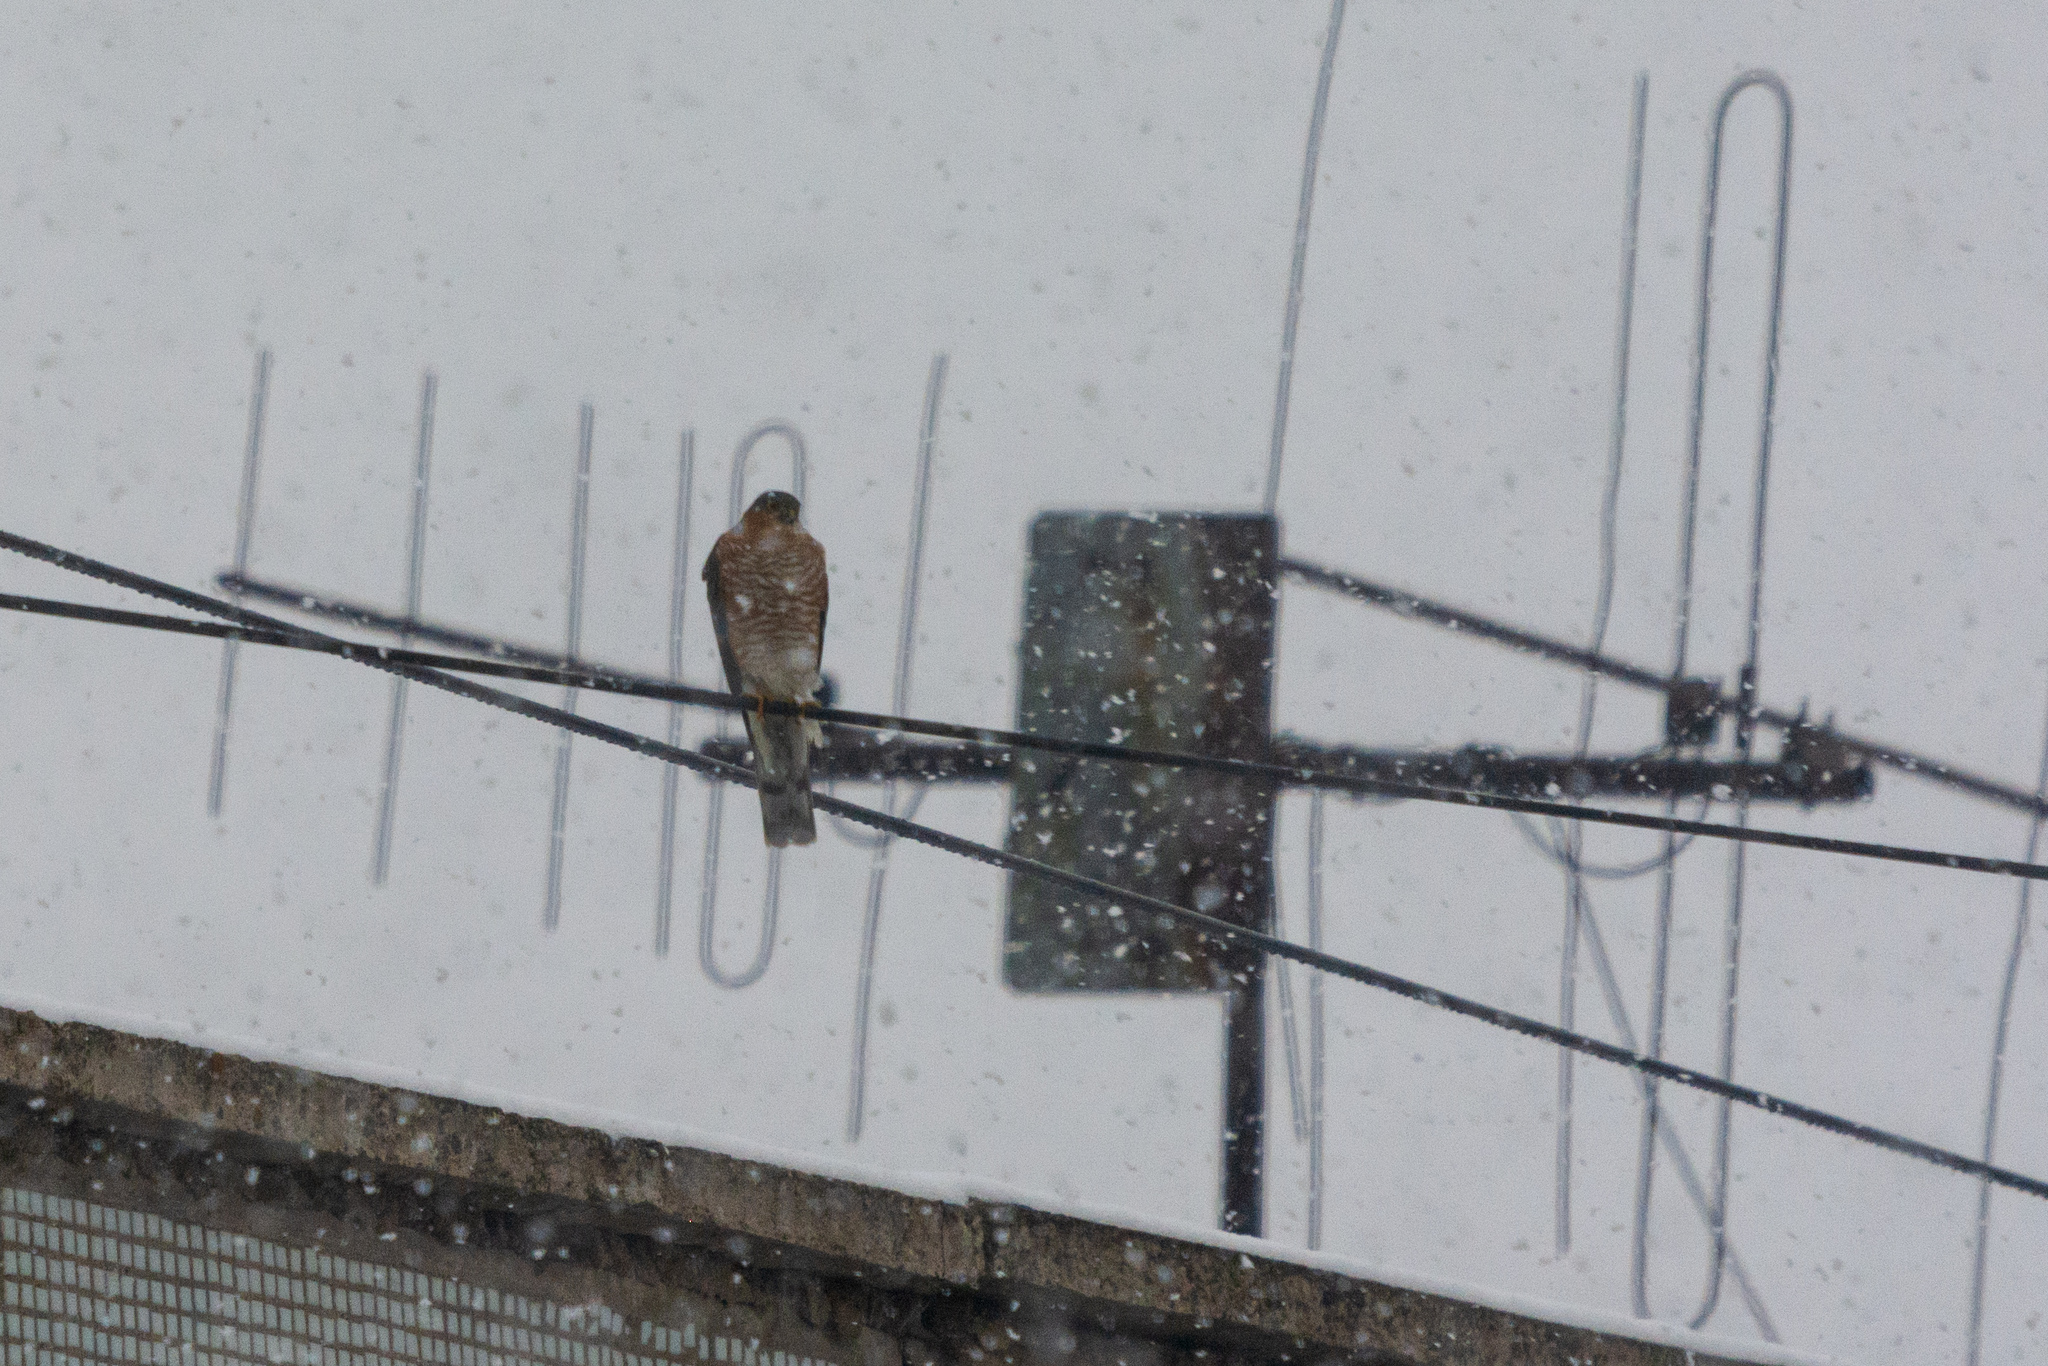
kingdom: Animalia
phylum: Chordata
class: Aves
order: Accipitriformes
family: Accipitridae
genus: Accipiter
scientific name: Accipiter nisus
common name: Eurasian sparrowhawk
